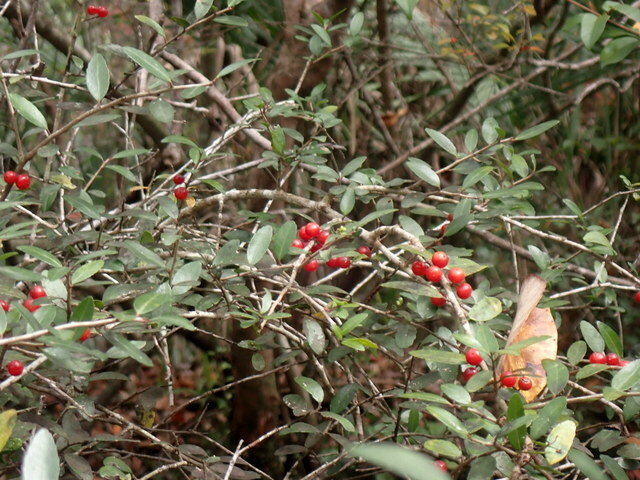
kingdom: Plantae
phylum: Tracheophyta
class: Magnoliopsida
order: Aquifoliales
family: Aquifoliaceae
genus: Ilex
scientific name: Ilex vomitoria
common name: Yaupon holly
